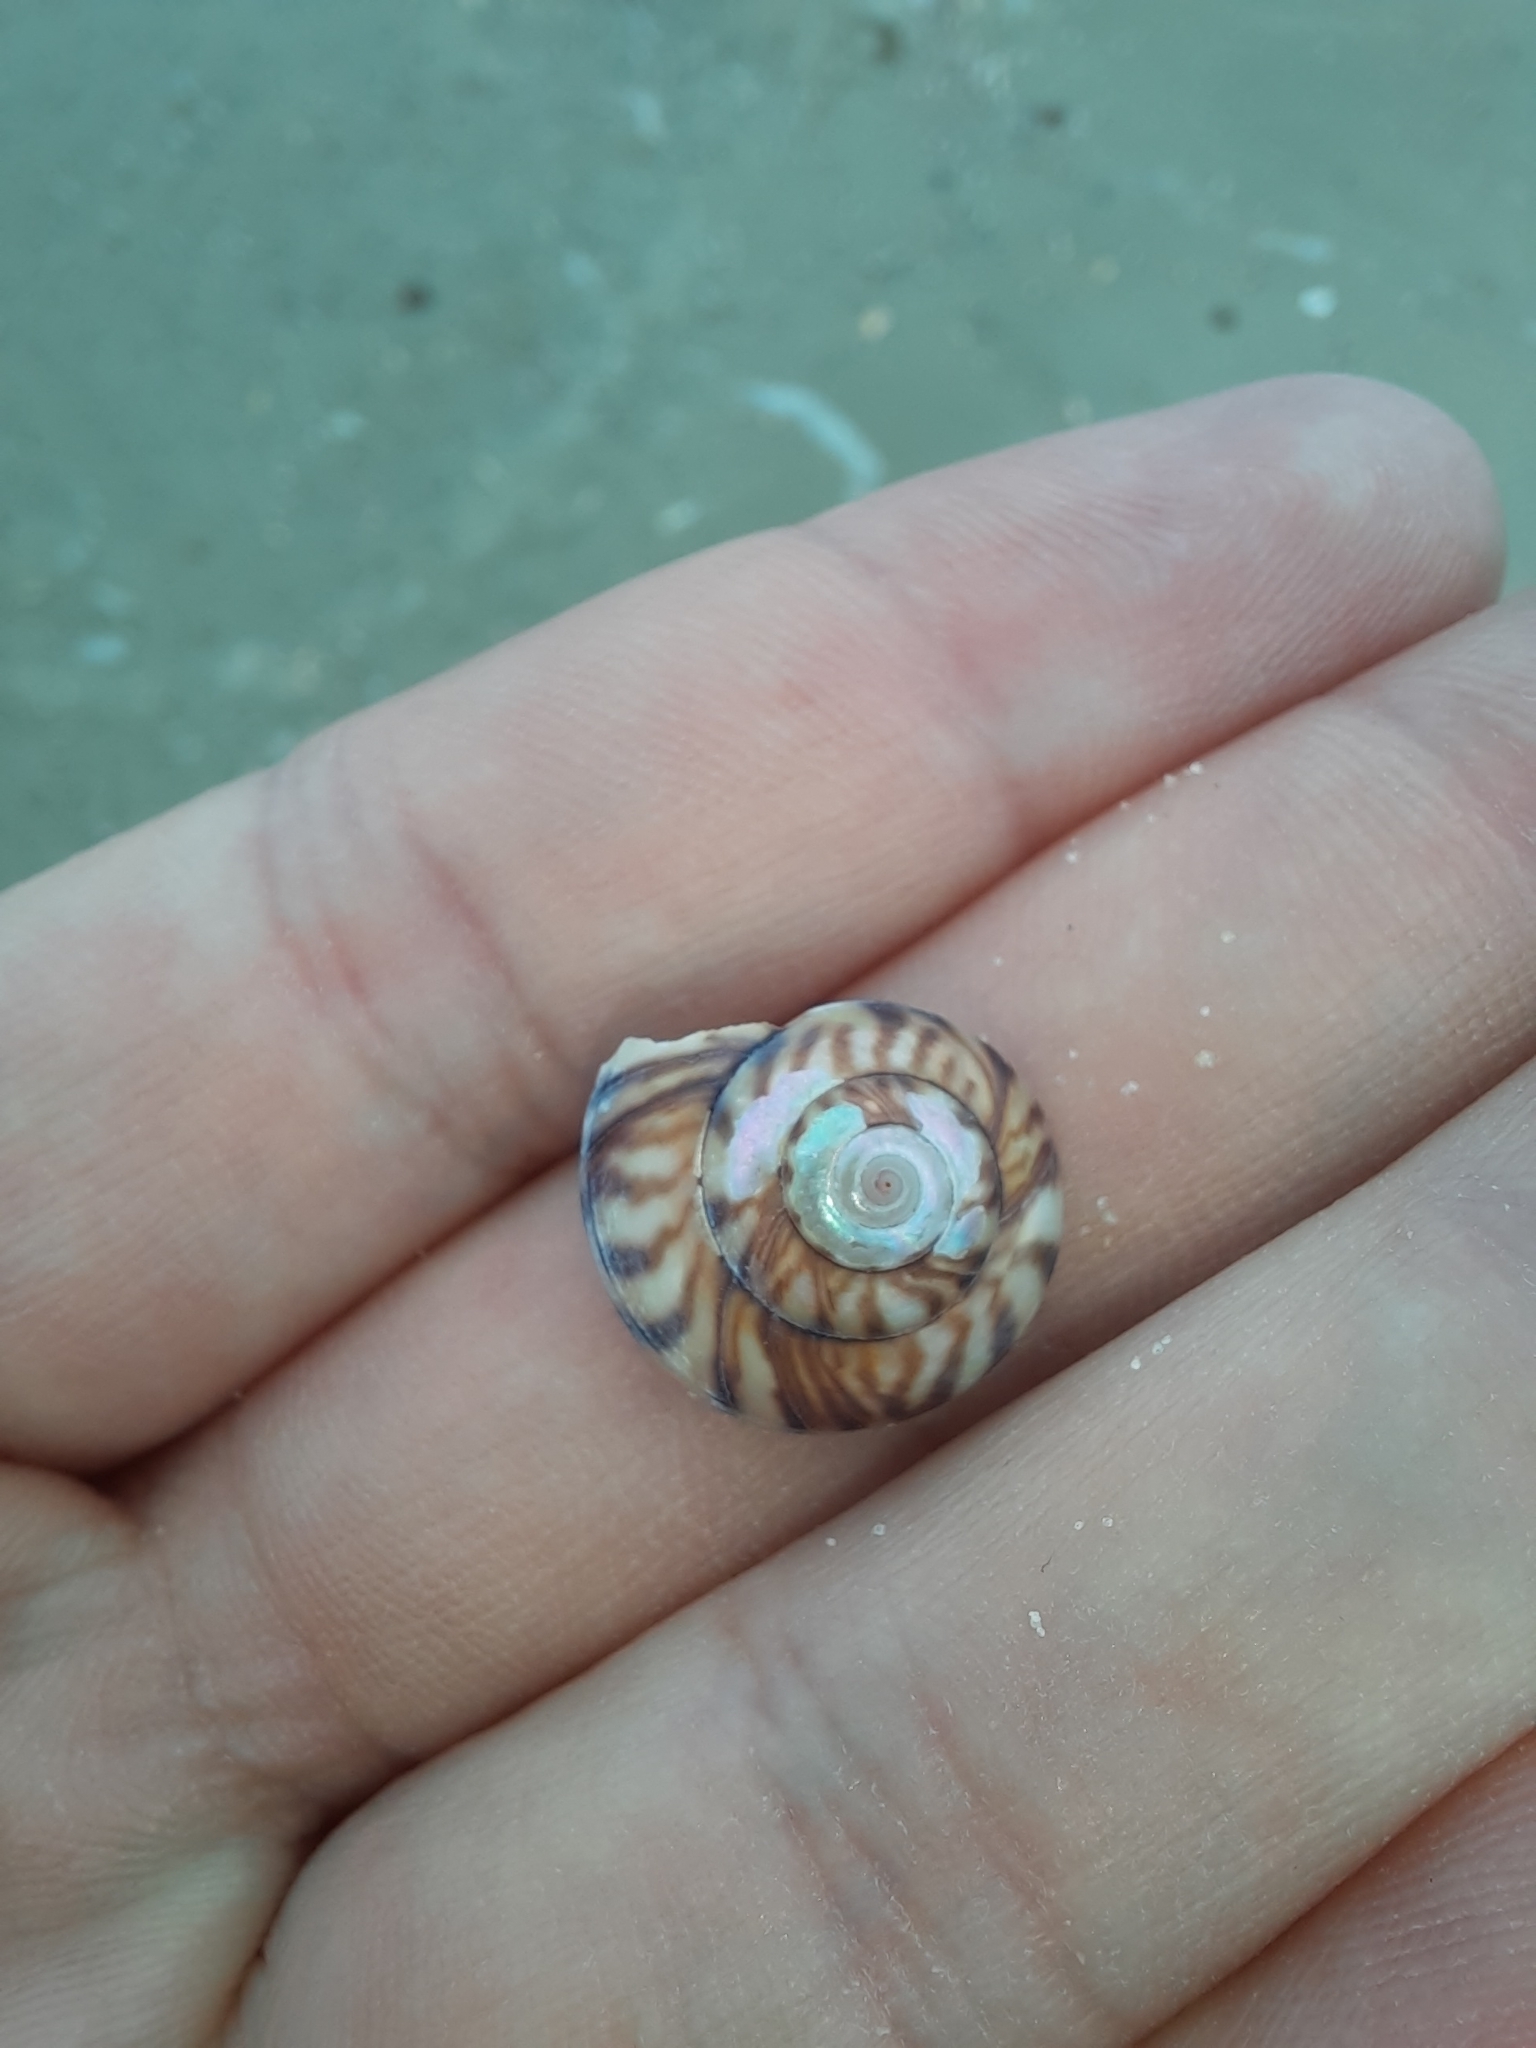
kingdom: Animalia
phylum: Mollusca
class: Gastropoda
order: Trochida
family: Trochidae
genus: Zethalia
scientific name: Zethalia zelandica
